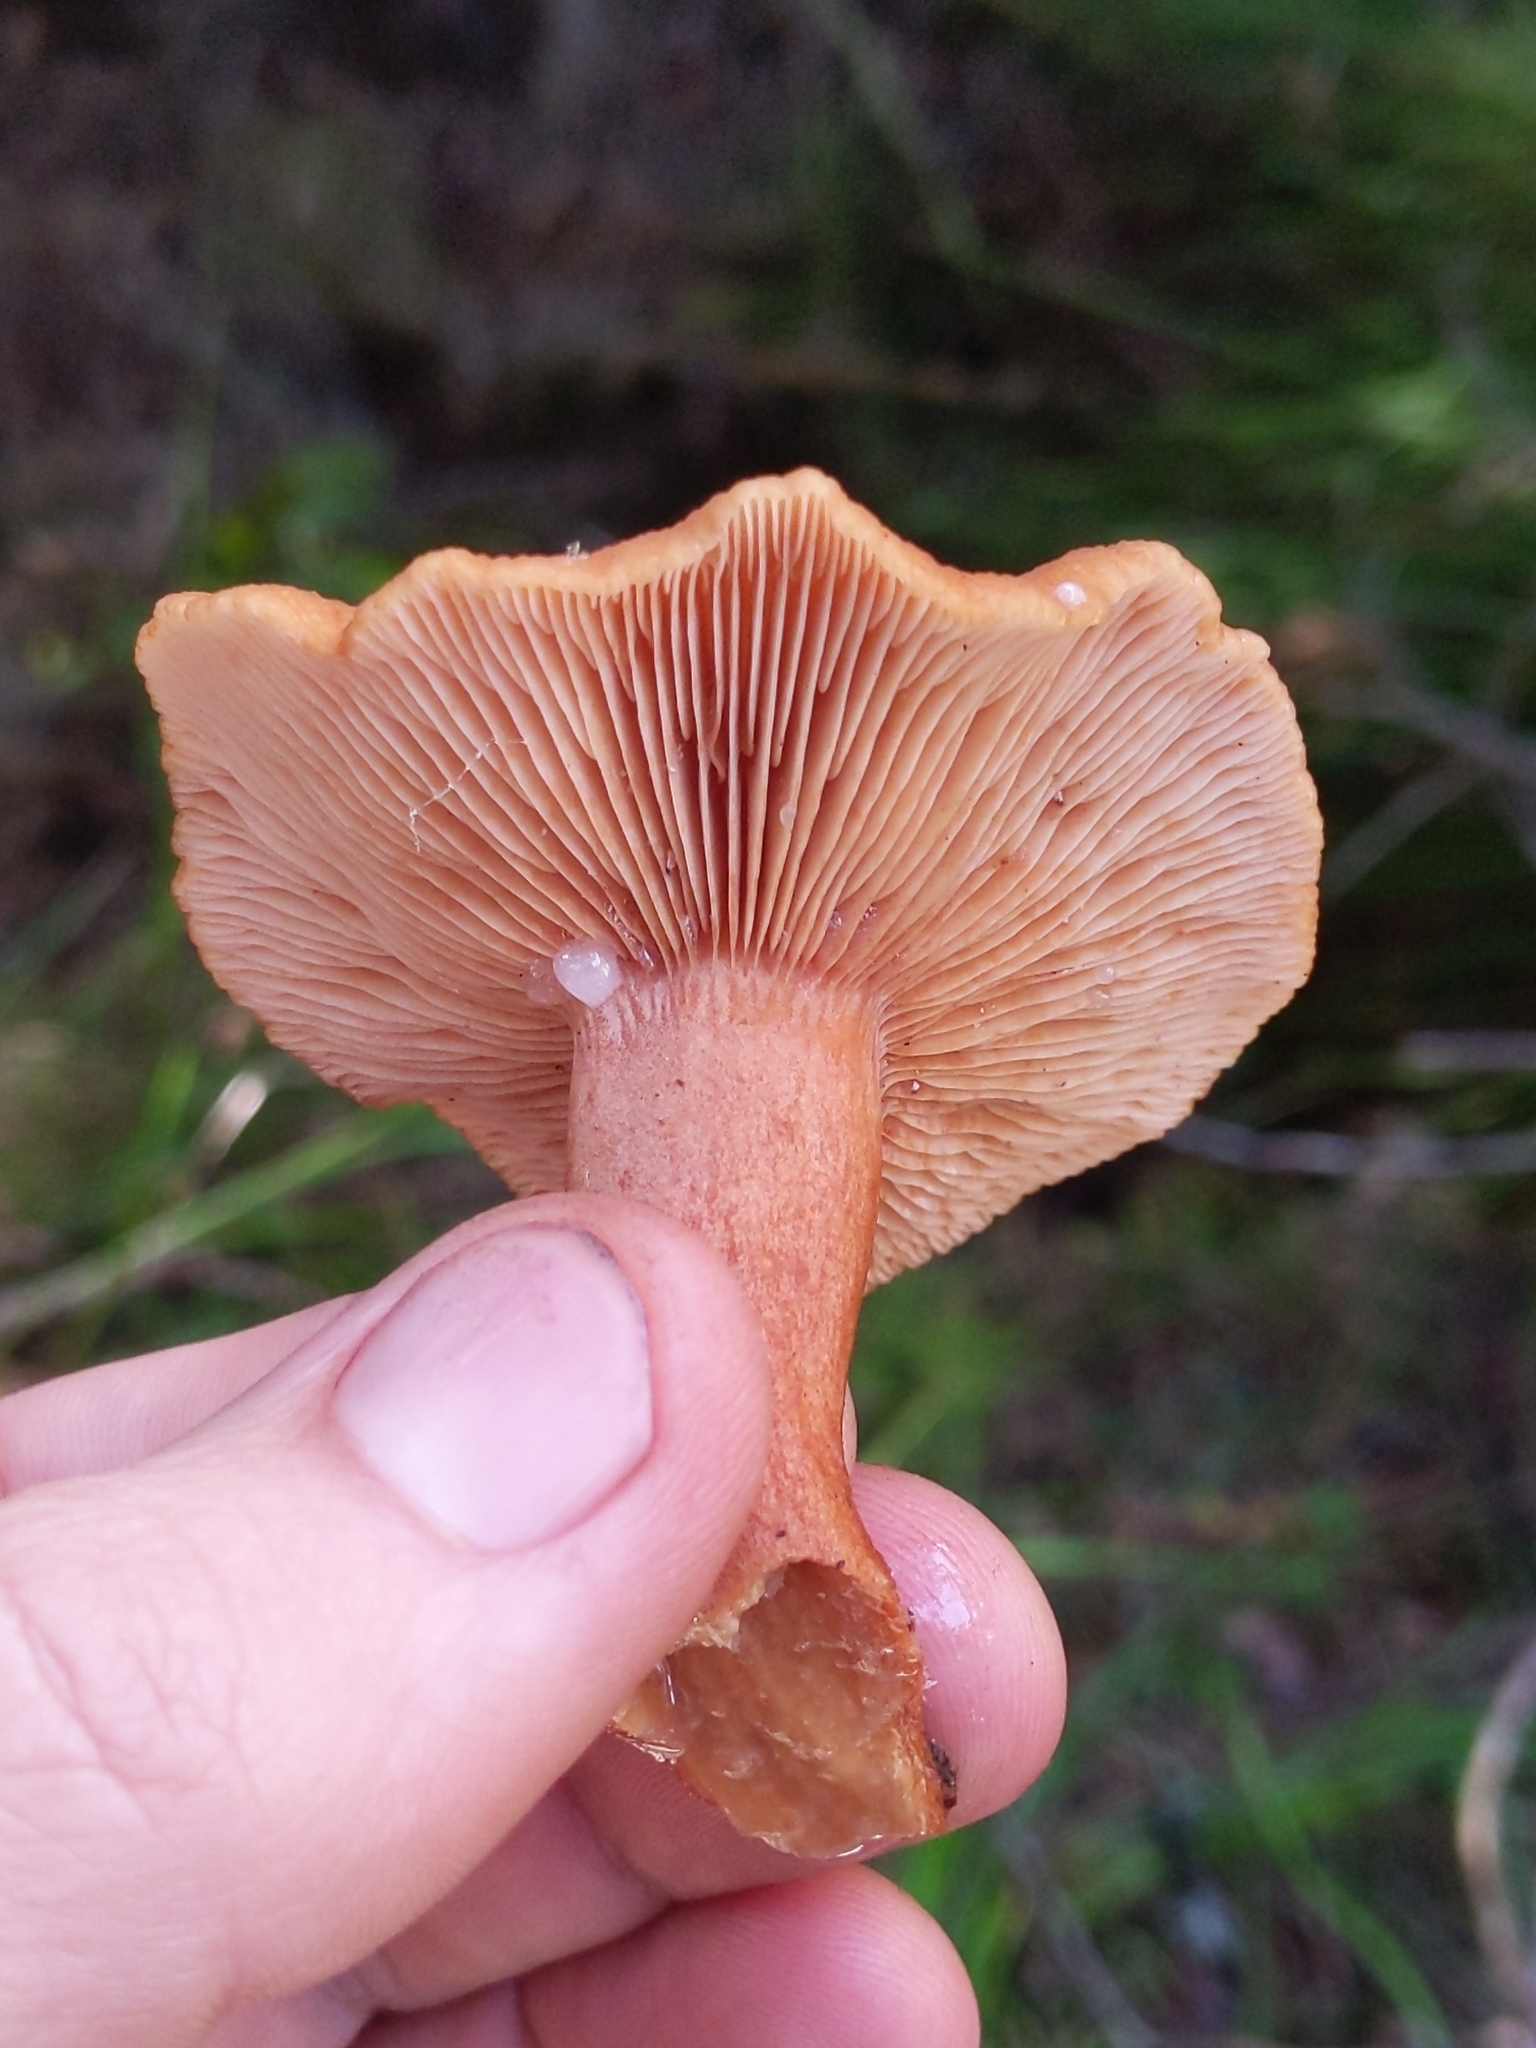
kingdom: Fungi
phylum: Basidiomycota
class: Agaricomycetes
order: Russulales
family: Russulaceae
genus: Lactarius
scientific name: Lactarius rubidus
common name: Candy cap
